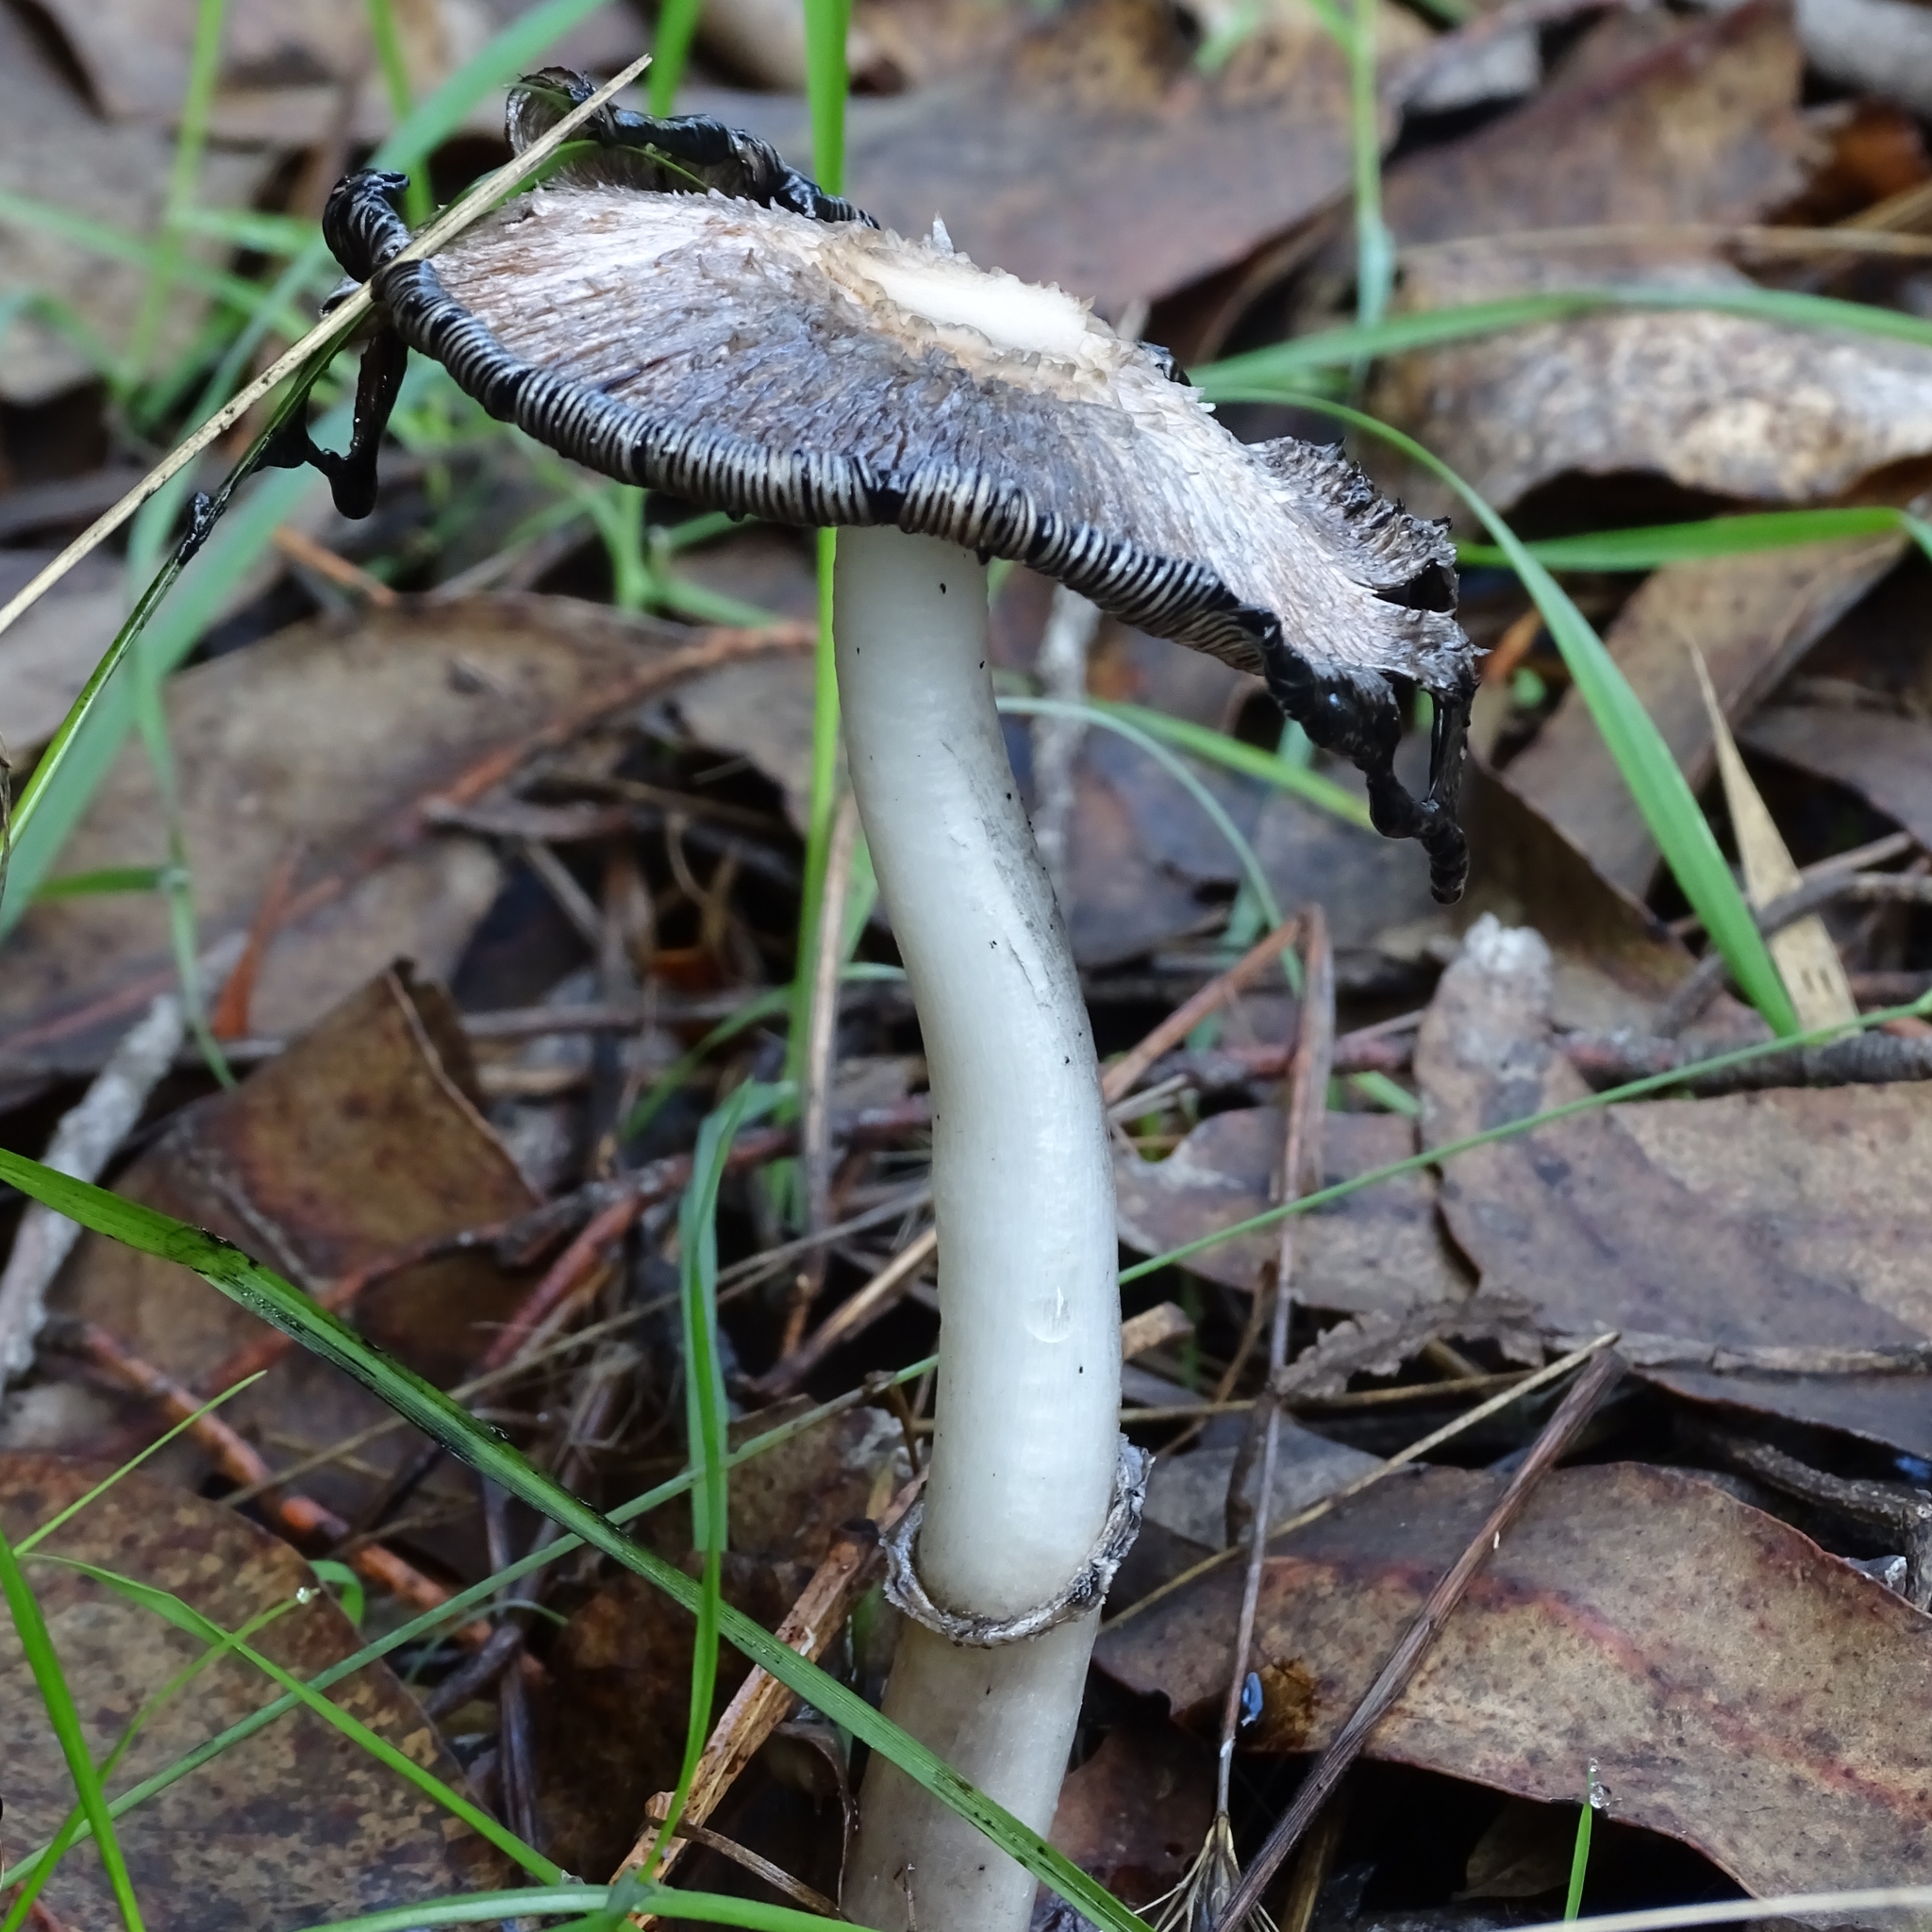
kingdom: Fungi
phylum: Basidiomycota
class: Agaricomycetes
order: Agaricales
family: Agaricaceae
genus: Coprinus
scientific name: Coprinus comatus
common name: Lawyer's wig
